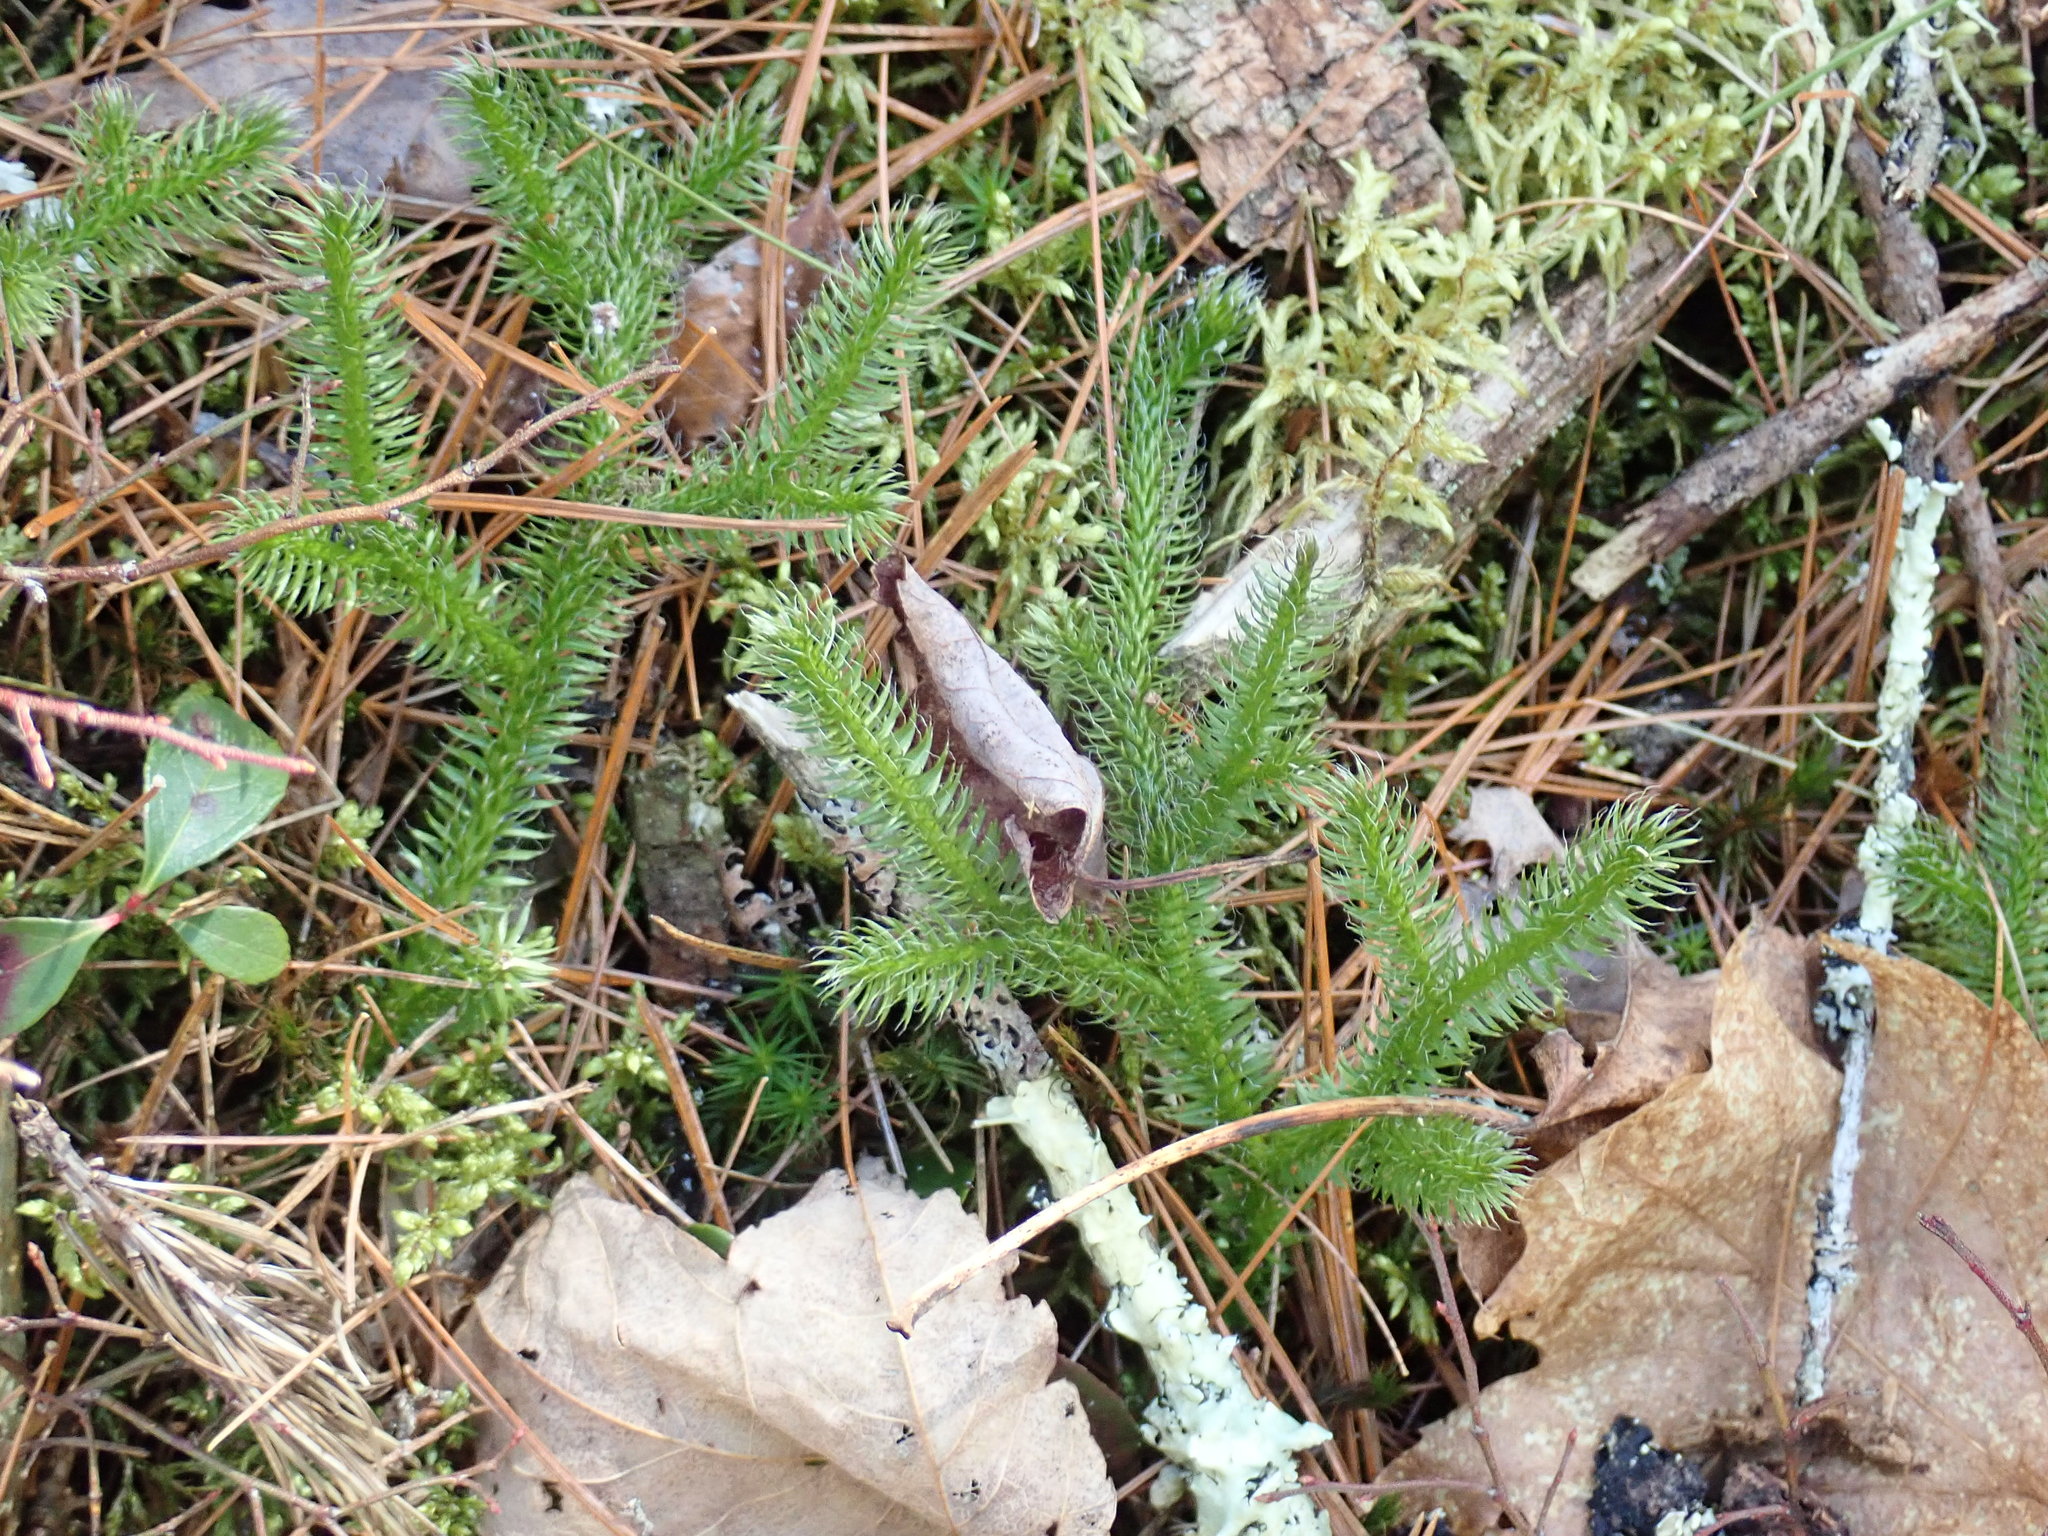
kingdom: Plantae
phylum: Tracheophyta
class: Lycopodiopsida
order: Lycopodiales
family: Lycopodiaceae
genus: Lycopodium
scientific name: Lycopodium clavatum
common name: Stag's-horn clubmoss
